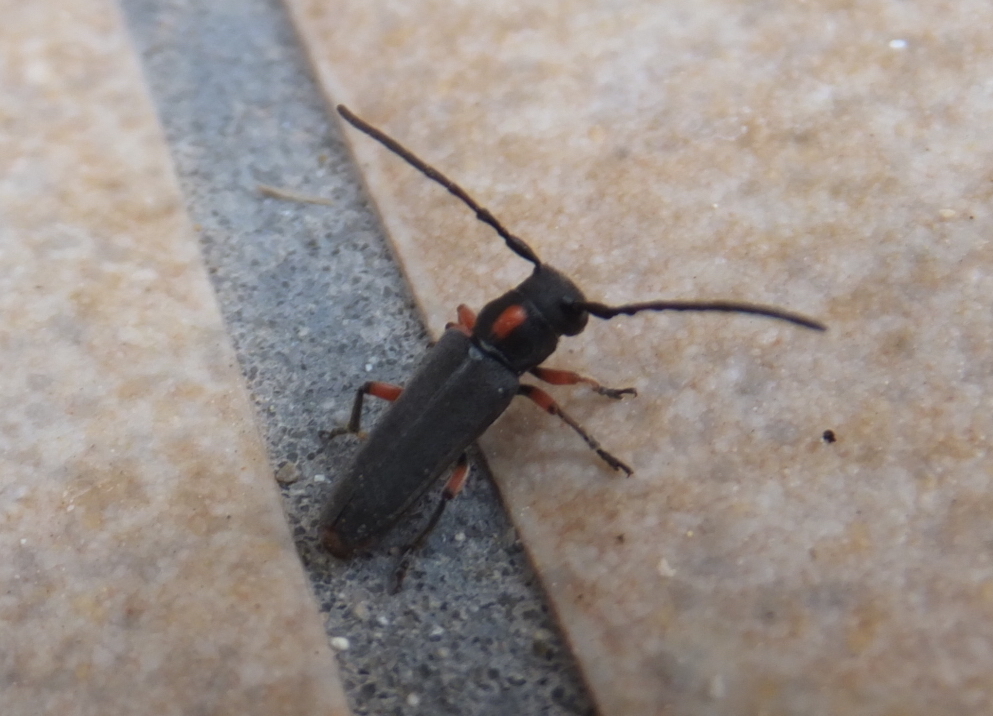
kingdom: Animalia
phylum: Arthropoda
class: Insecta
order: Coleoptera
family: Cerambycidae
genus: Phytoecia
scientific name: Phytoecia pustulata
